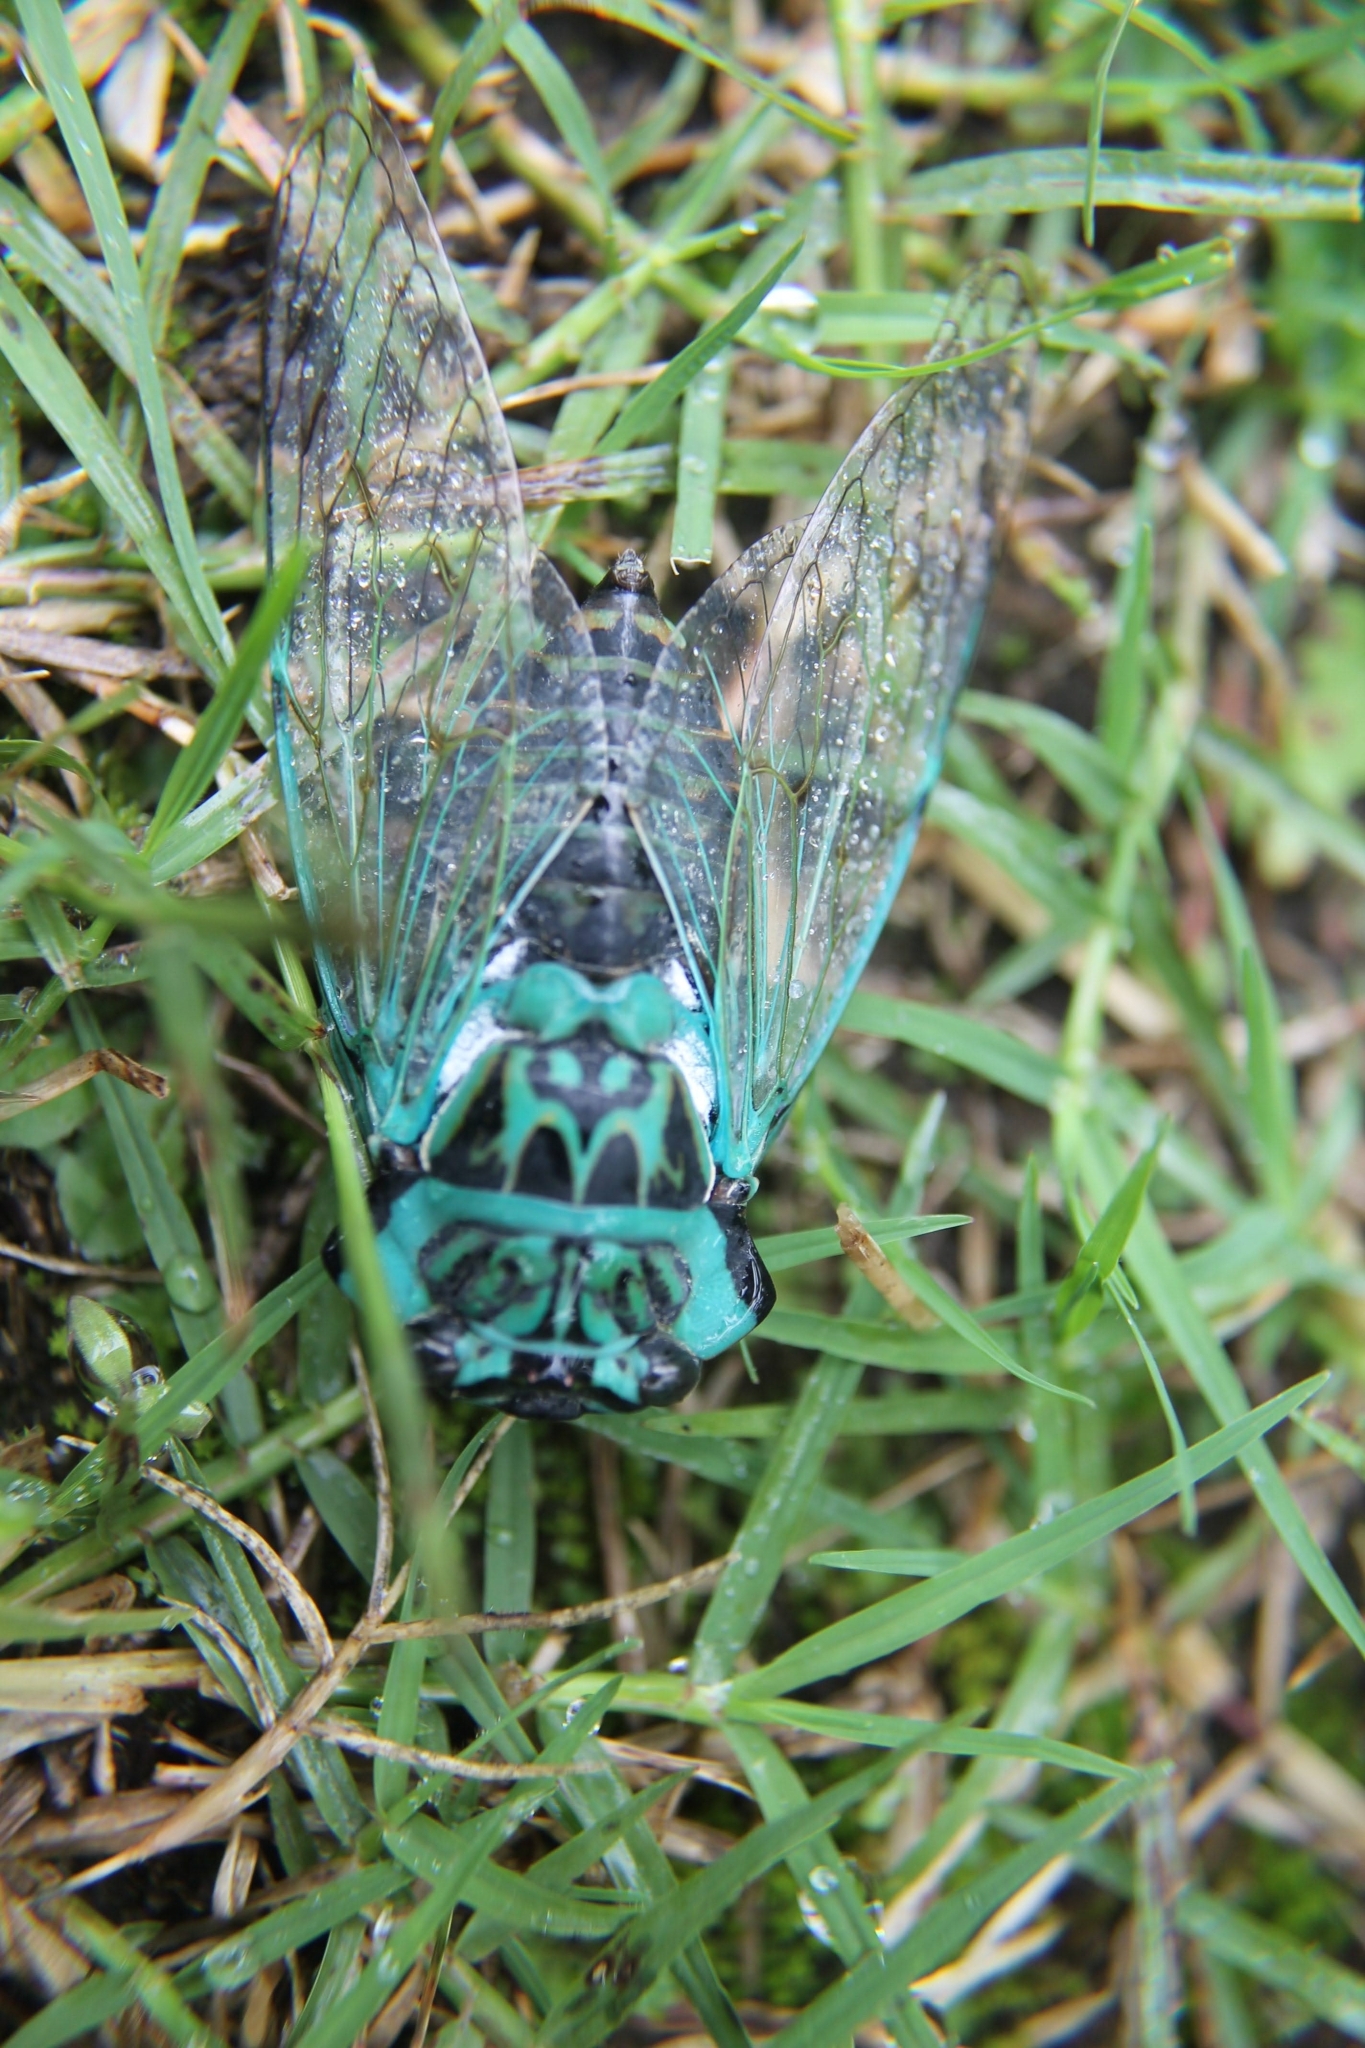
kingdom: Animalia
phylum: Arthropoda
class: Insecta
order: Hemiptera
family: Cicadidae
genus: Adusella
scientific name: Adusella insignifera
